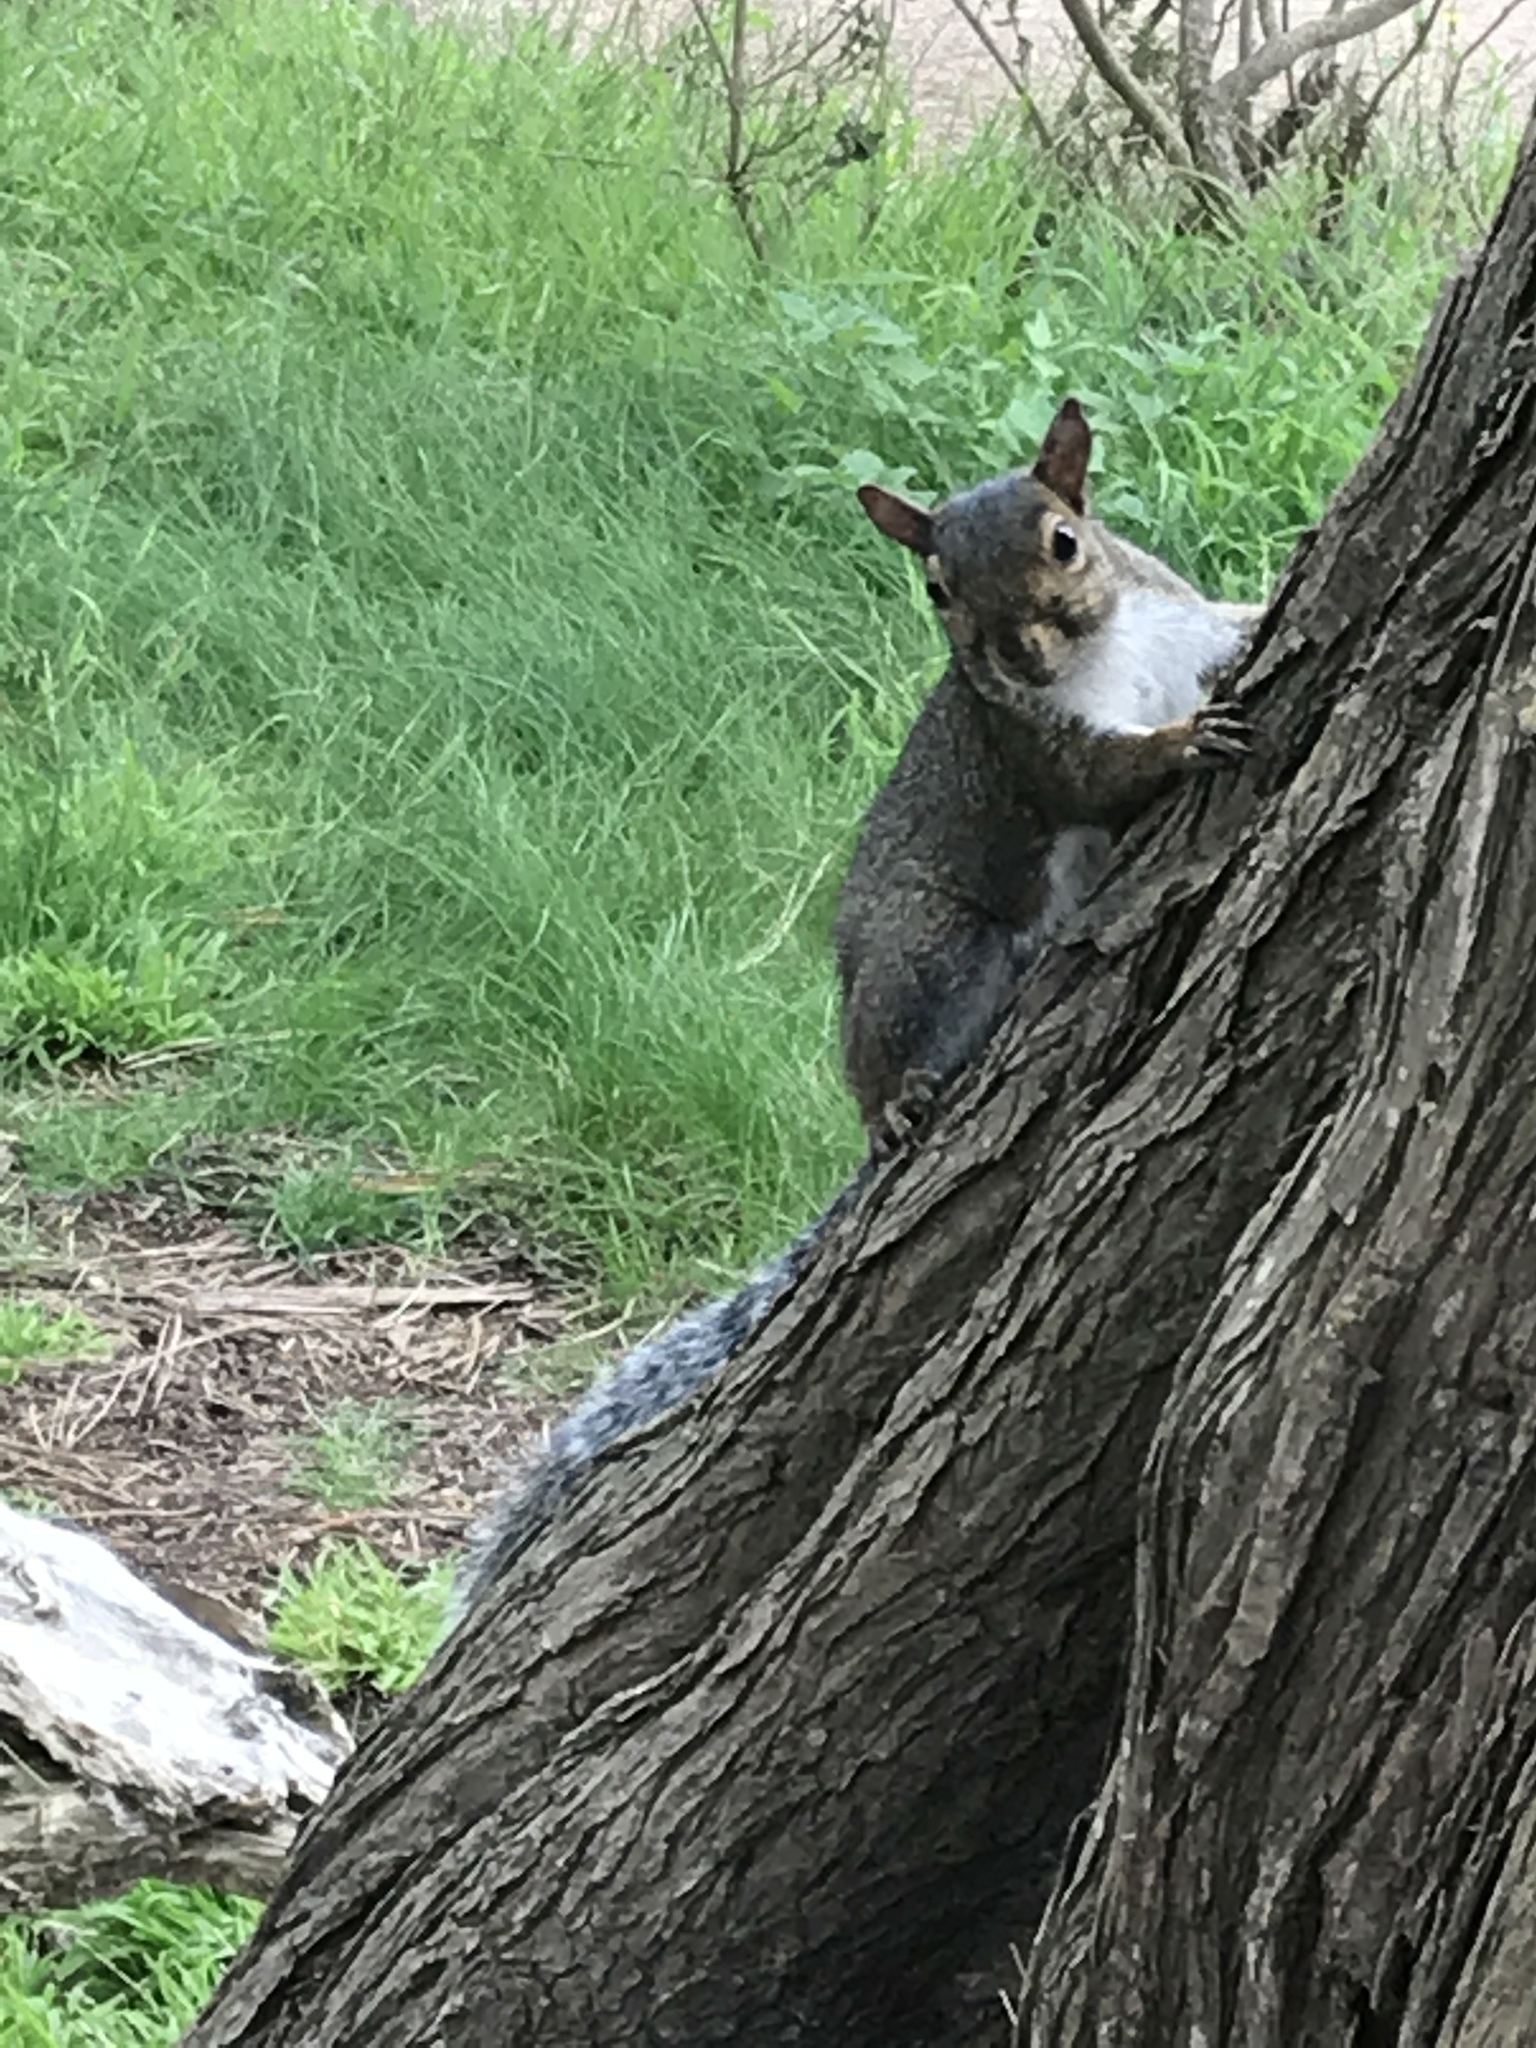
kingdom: Animalia
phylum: Chordata
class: Mammalia
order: Rodentia
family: Sciuridae
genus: Sciurus
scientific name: Sciurus carolinensis
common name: Eastern gray squirrel
